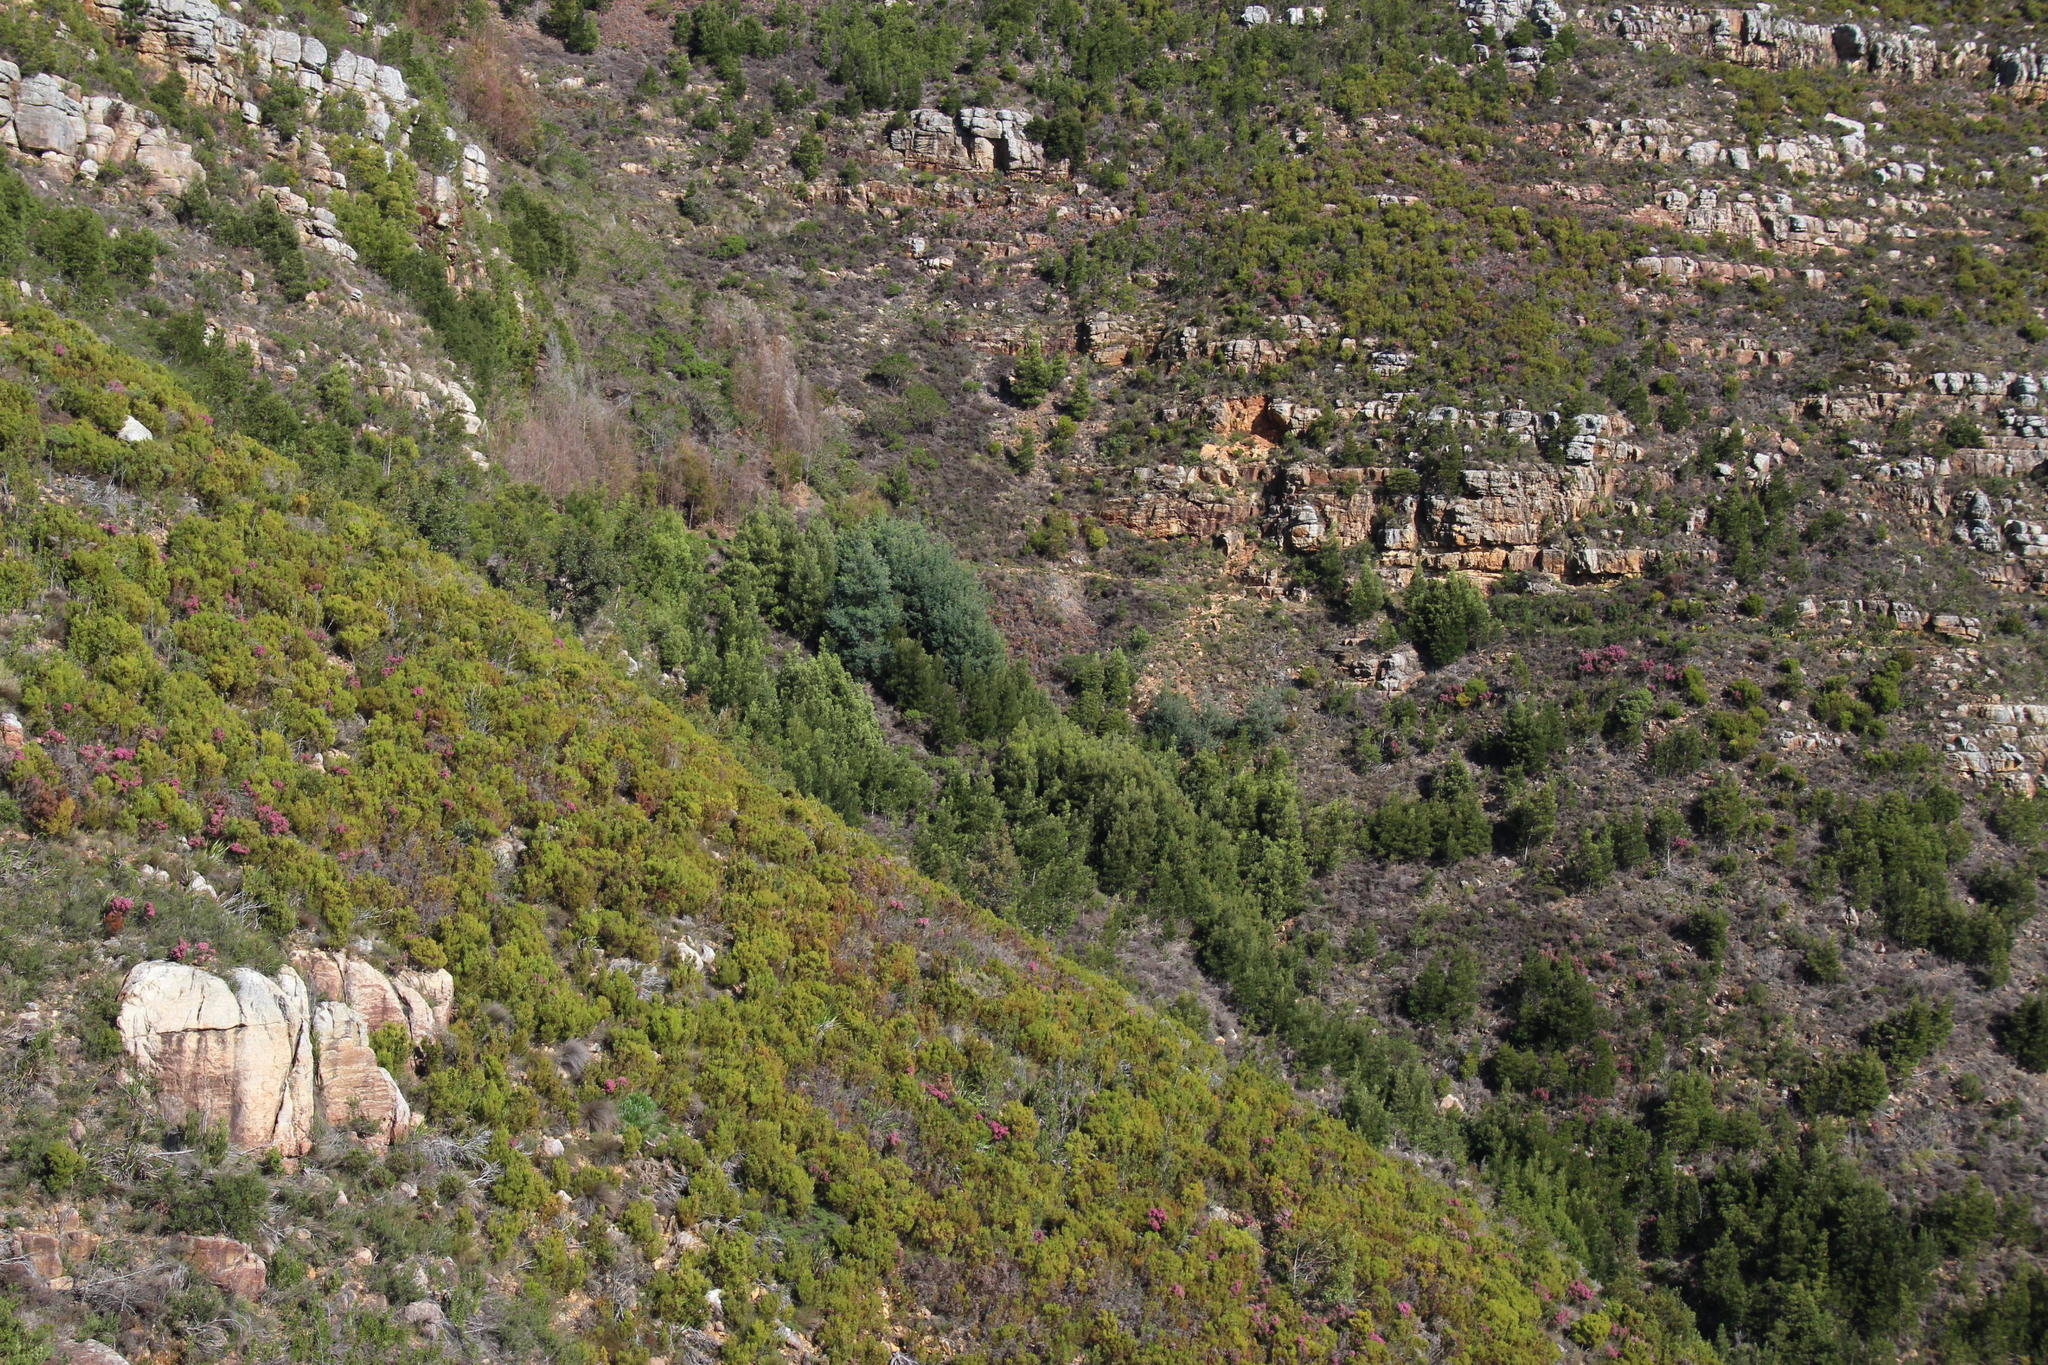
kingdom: Plantae
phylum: Tracheophyta
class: Magnoliopsida
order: Proteales
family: Proteaceae
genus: Leucadendron
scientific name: Leucadendron xanthoconus
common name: Sickle-leaf conebush
